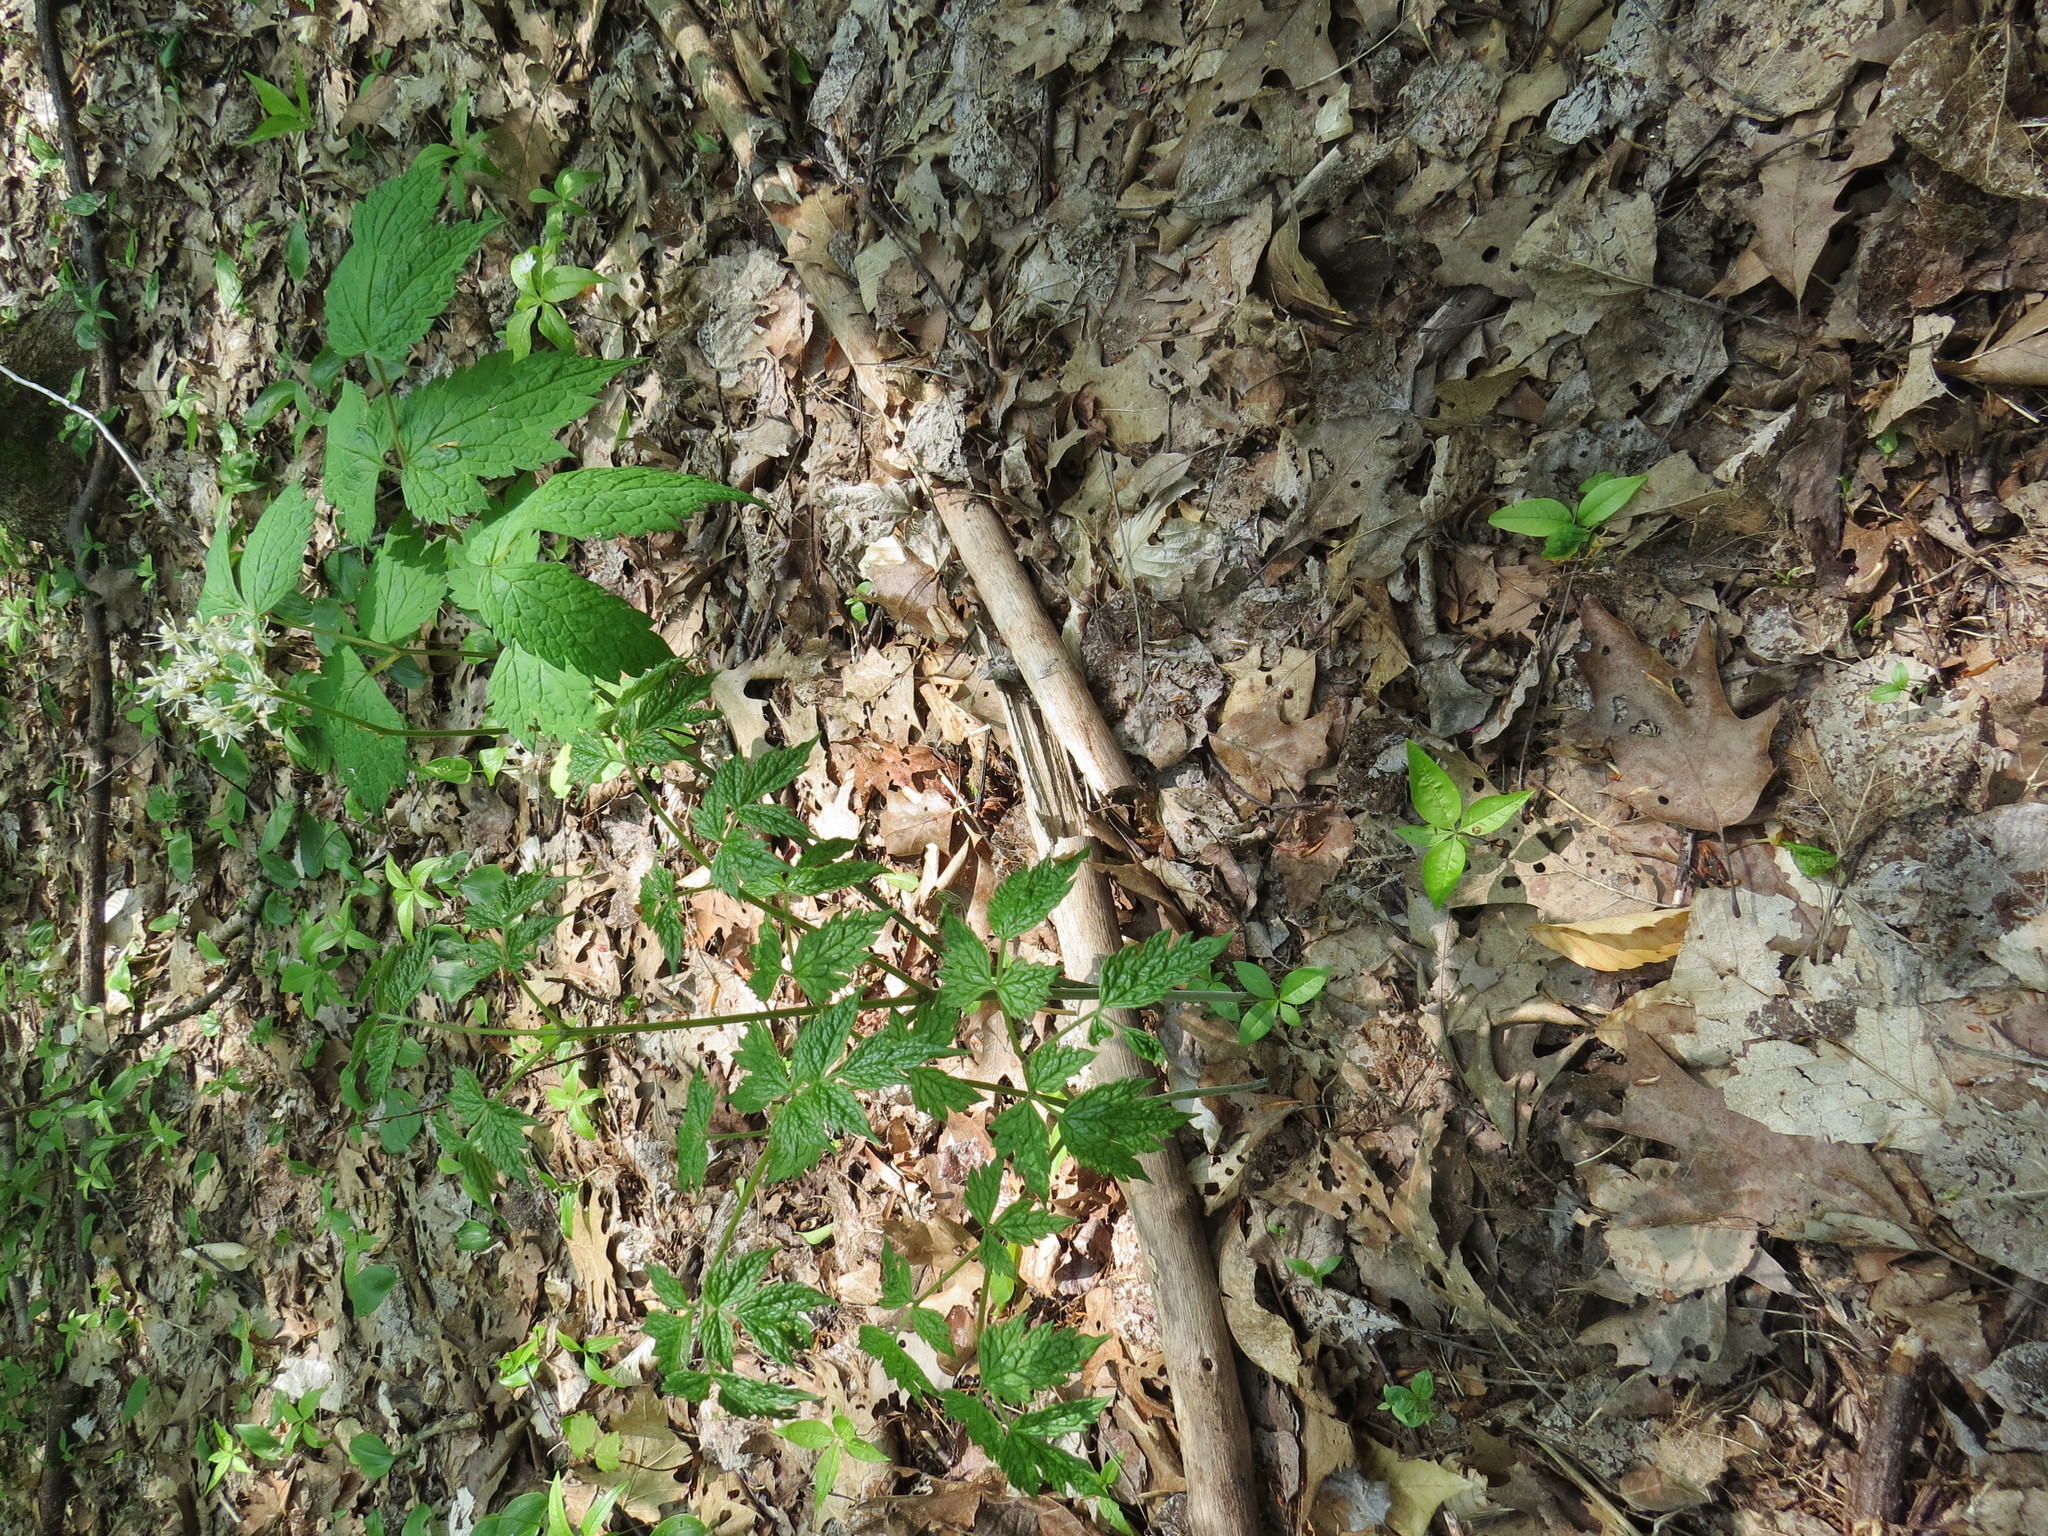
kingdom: Plantae
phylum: Tracheophyta
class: Magnoliopsida
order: Ranunculales
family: Ranunculaceae
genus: Actaea
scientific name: Actaea rubra
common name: Red baneberry
